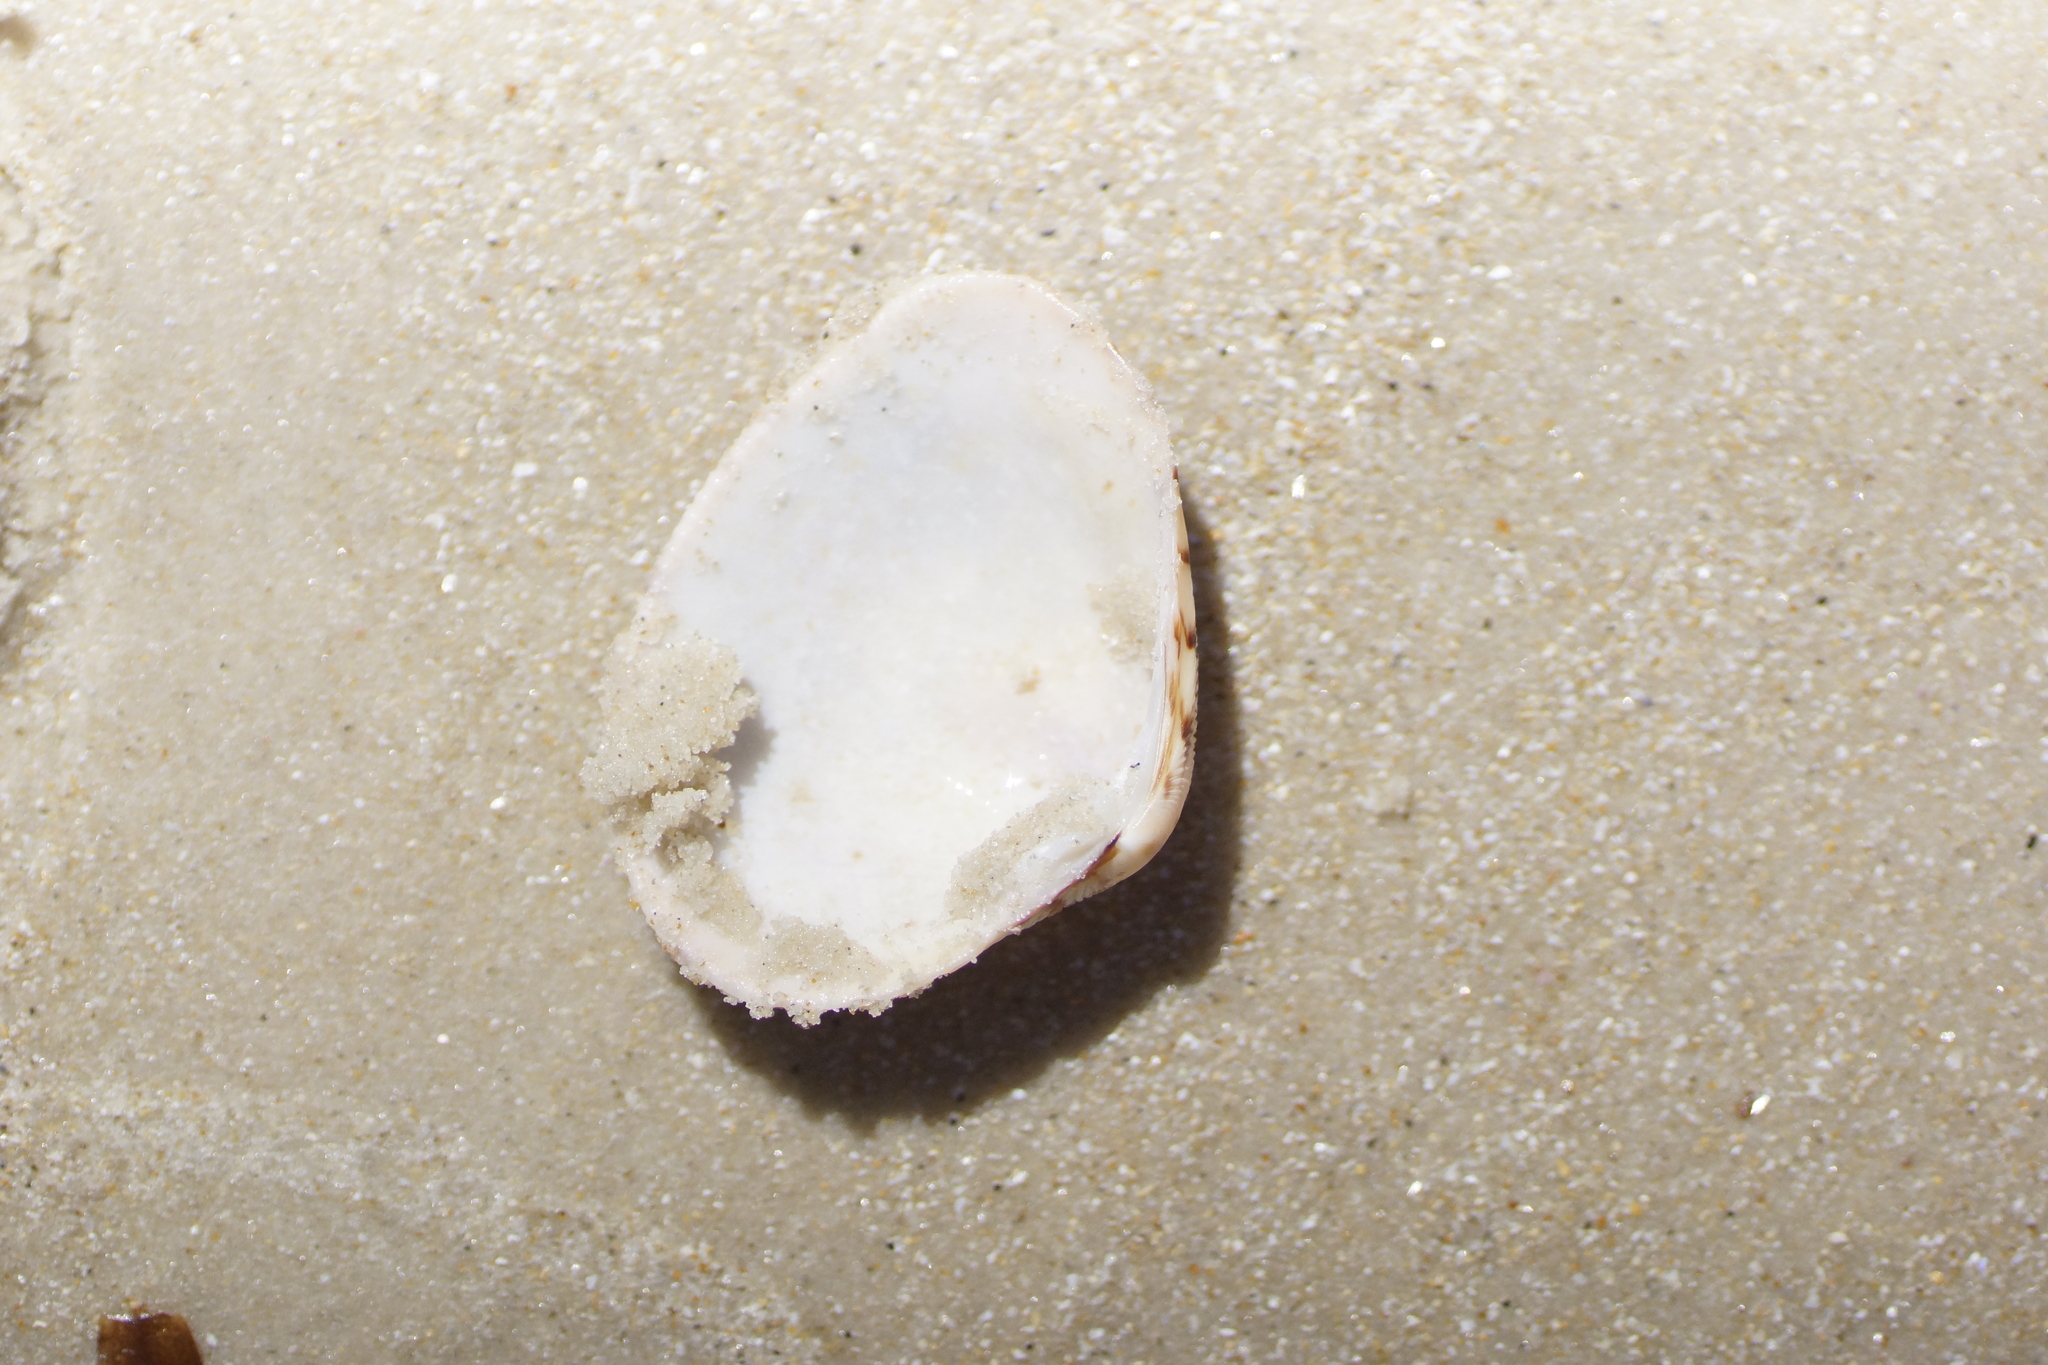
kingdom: Animalia
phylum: Mollusca
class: Bivalvia
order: Venerida
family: Veneridae
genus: Tawera
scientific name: Tawera lagopus
